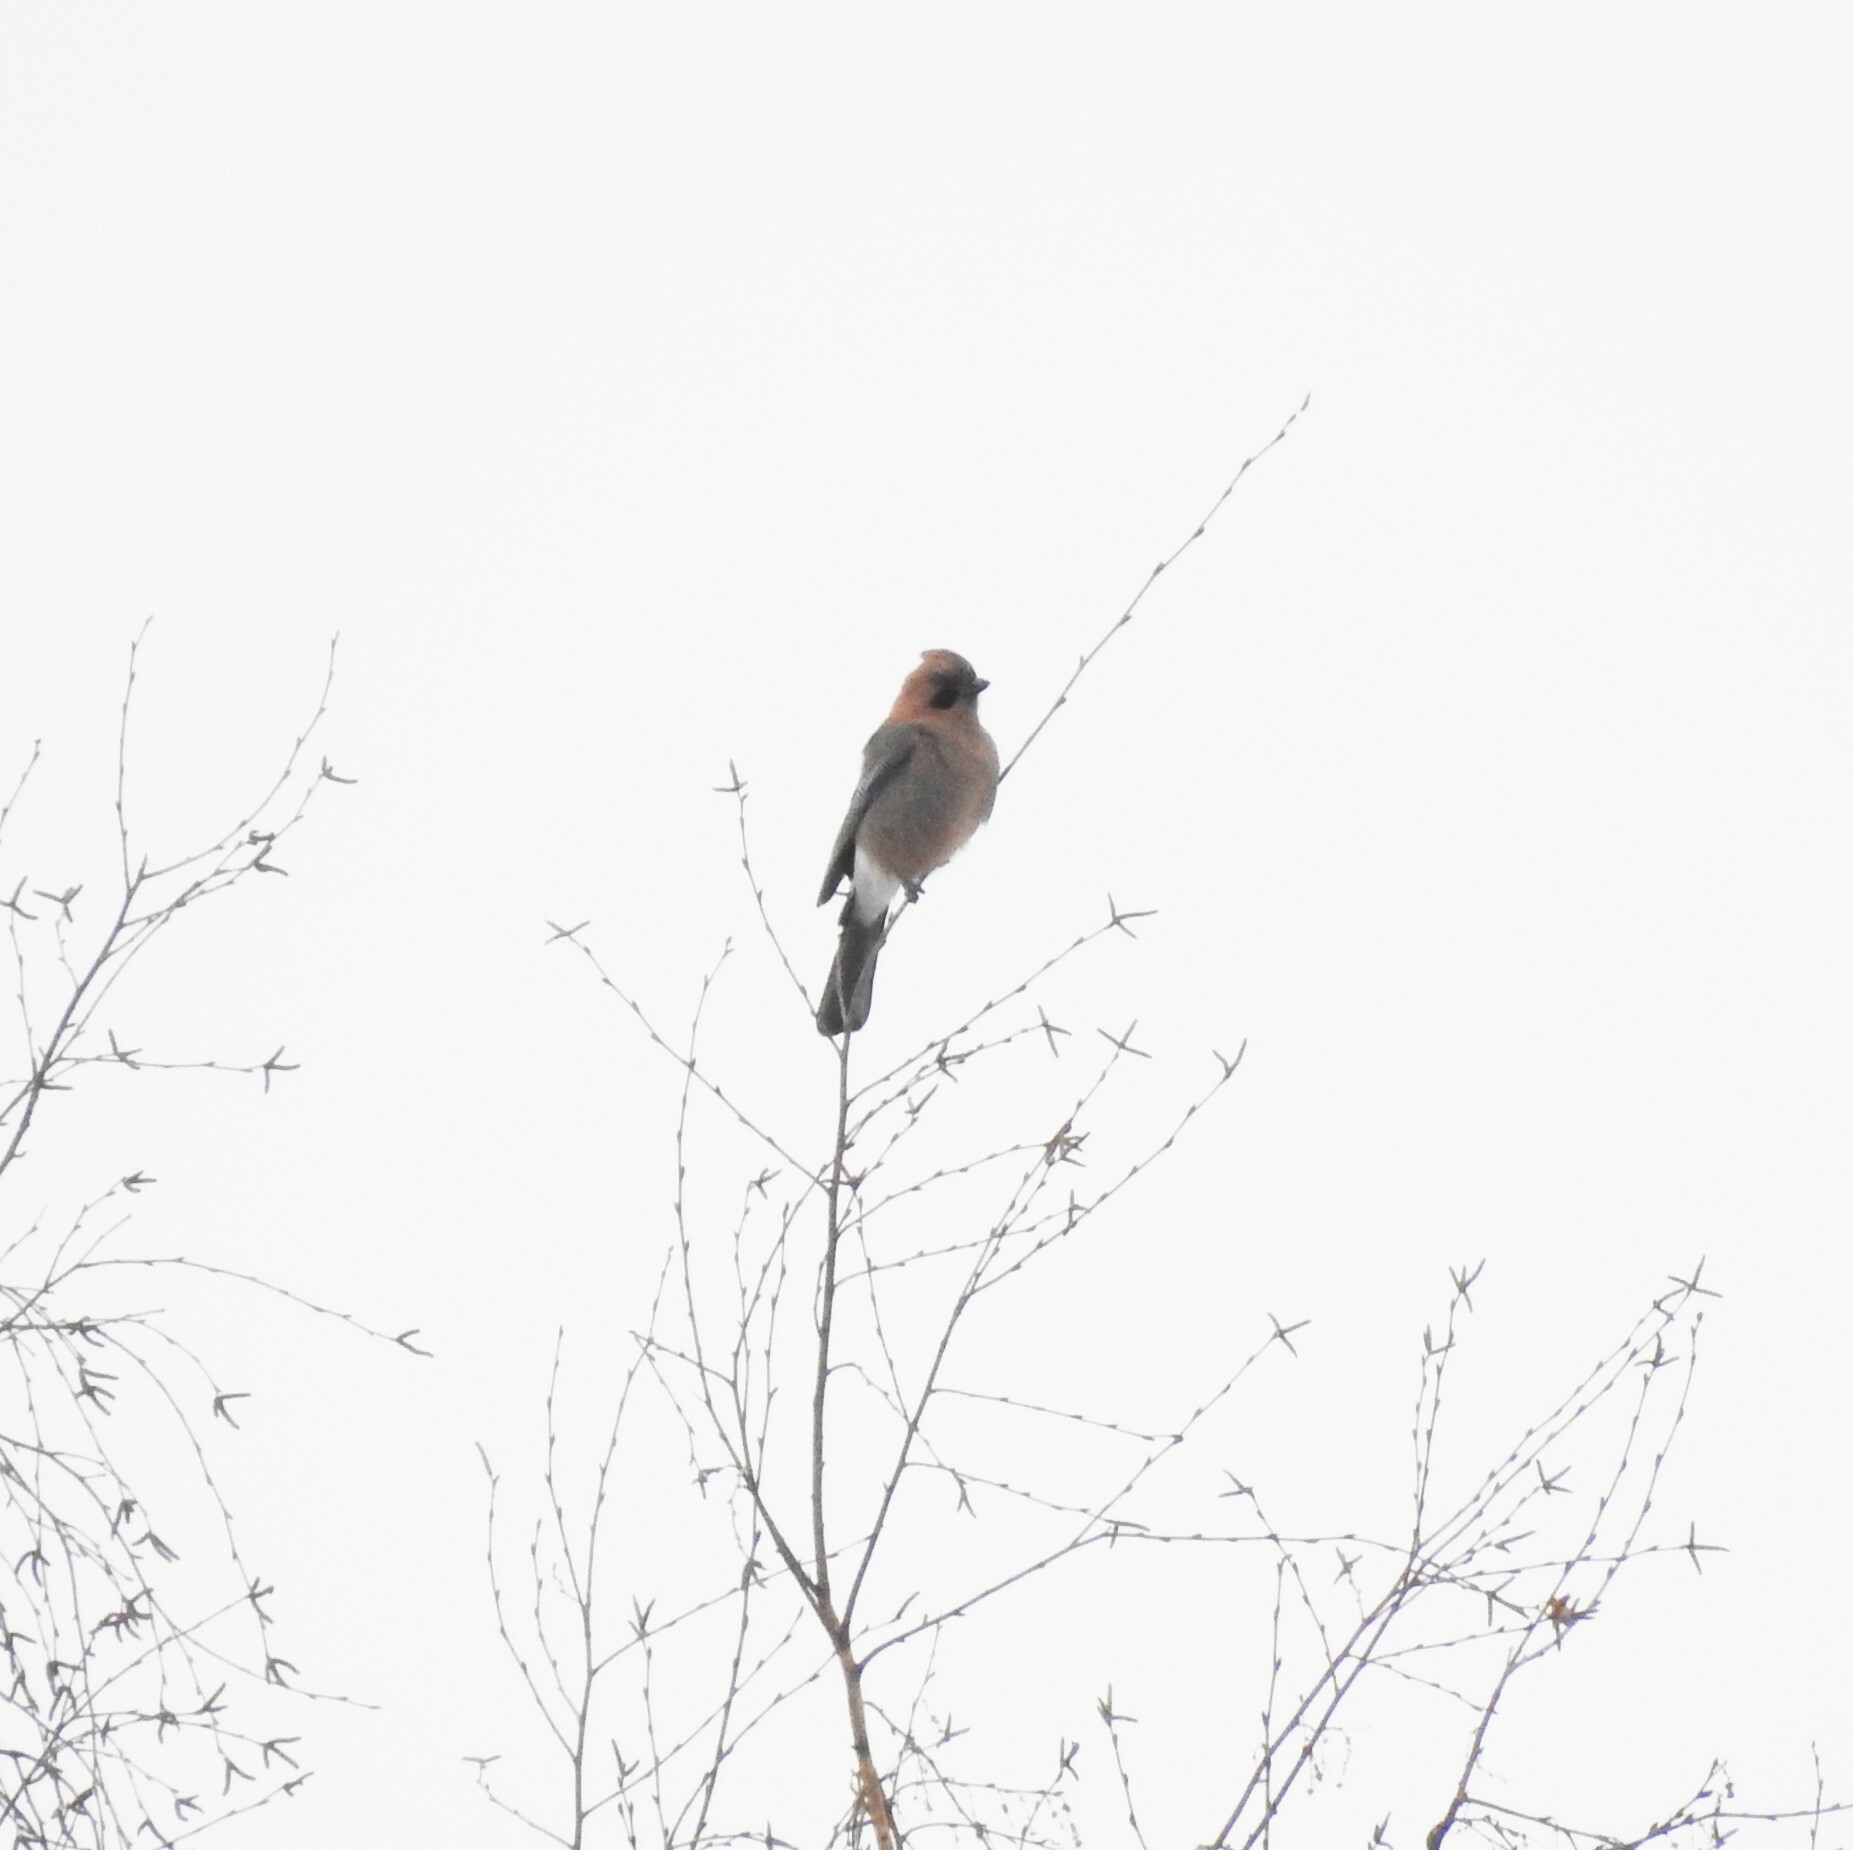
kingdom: Animalia
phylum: Chordata
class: Aves
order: Passeriformes
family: Corvidae
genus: Garrulus
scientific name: Garrulus glandarius
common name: Eurasian jay
